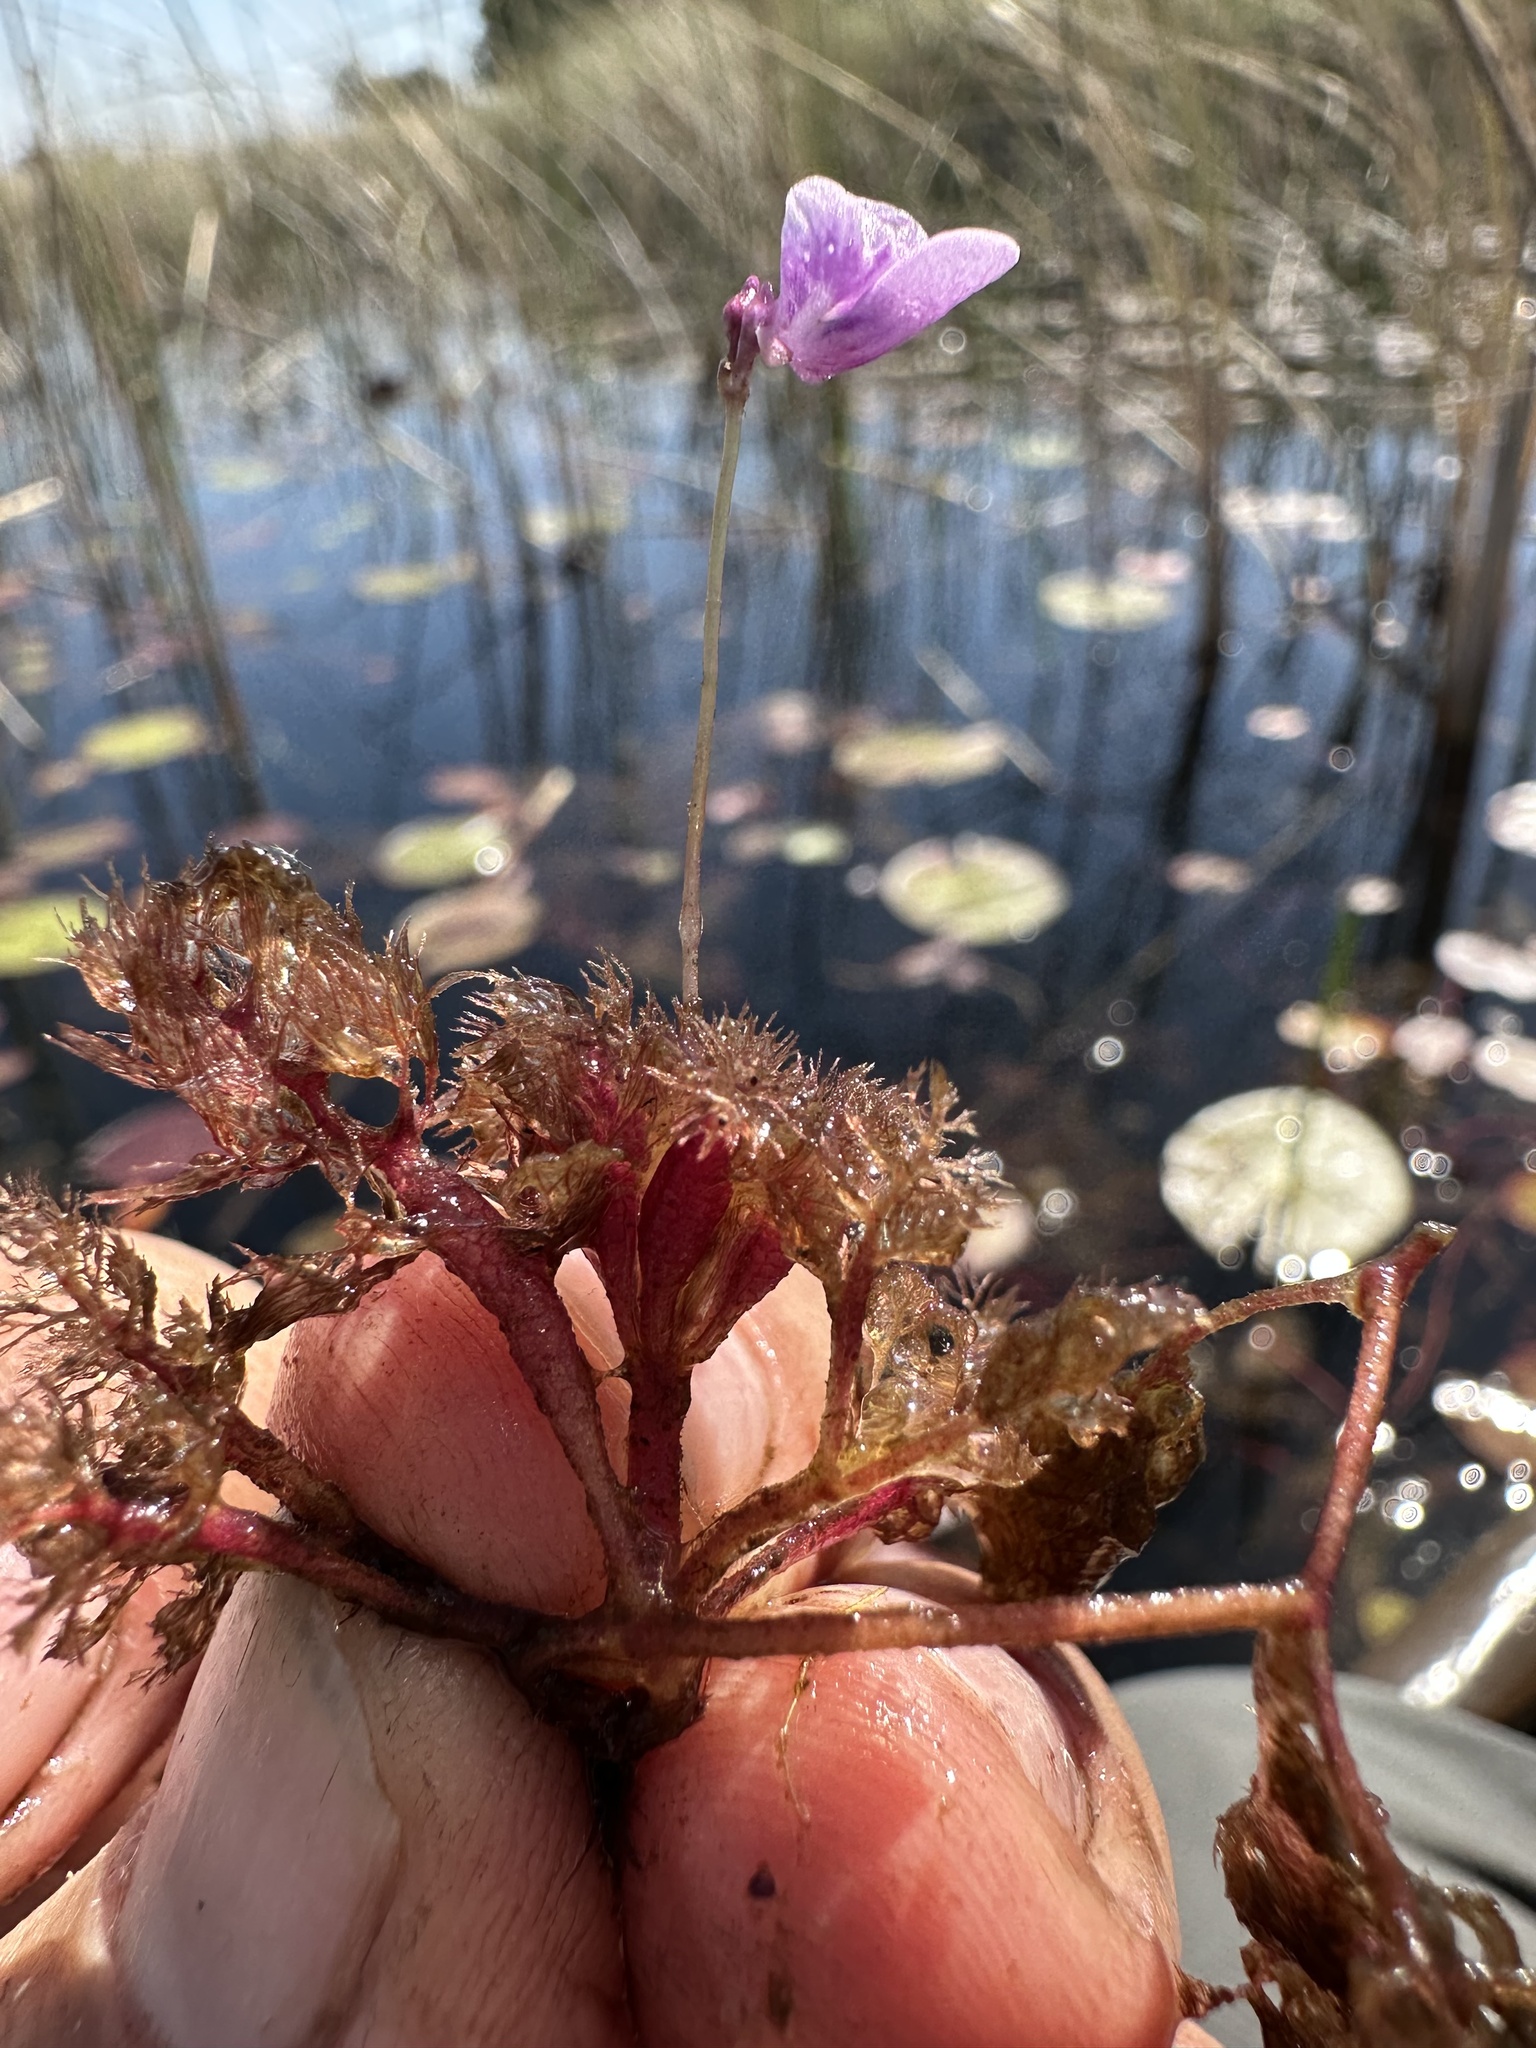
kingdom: Plantae
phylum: Tracheophyta
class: Magnoliopsida
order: Lamiales
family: Lentibulariaceae
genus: Utricularia
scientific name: Utricularia benjaminiana
